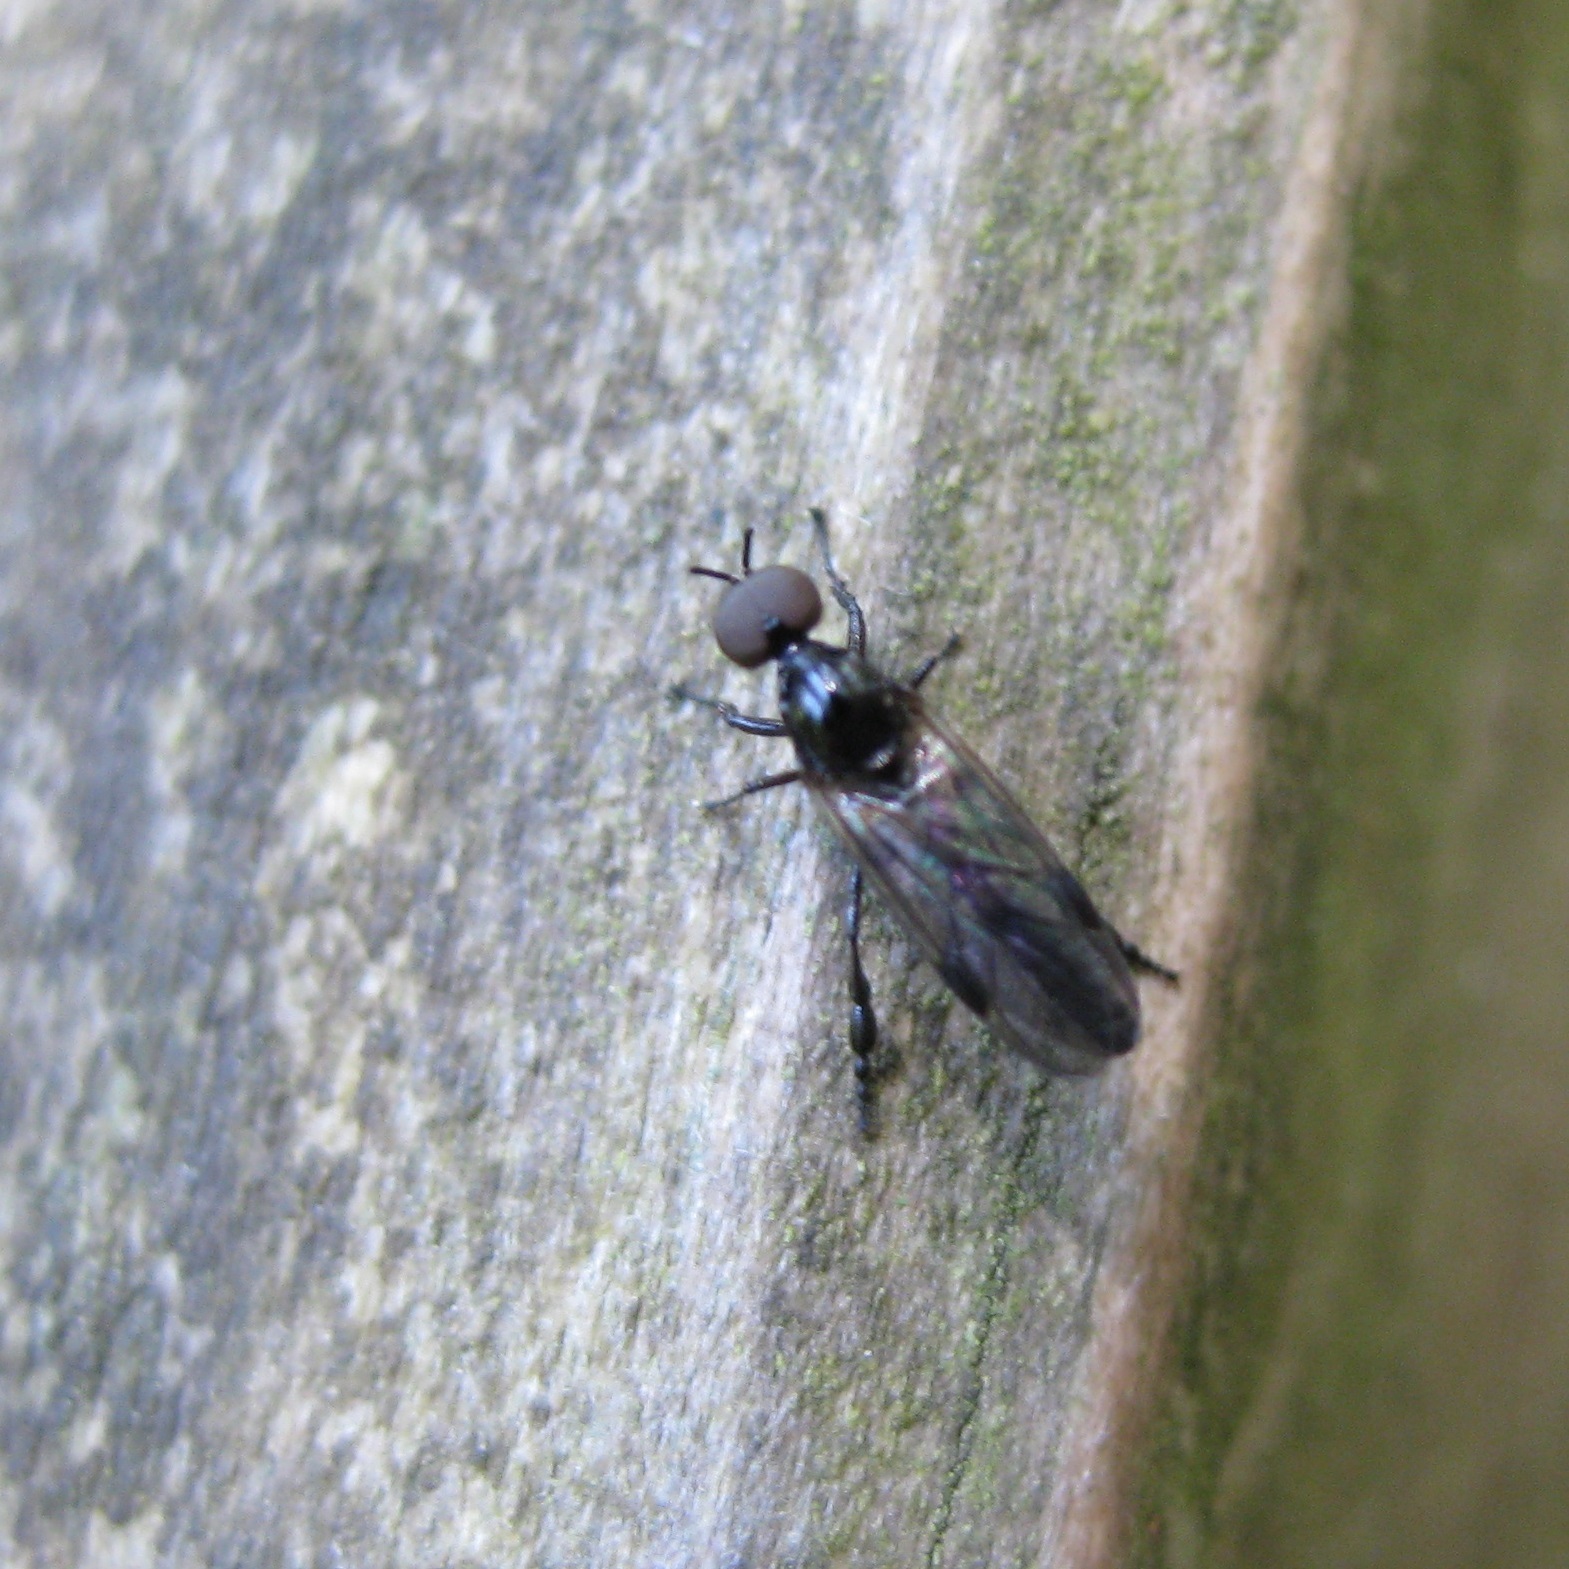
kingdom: Animalia
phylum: Arthropoda
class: Insecta
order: Diptera
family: Bibionidae
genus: Dilophus
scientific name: Dilophus segnis
